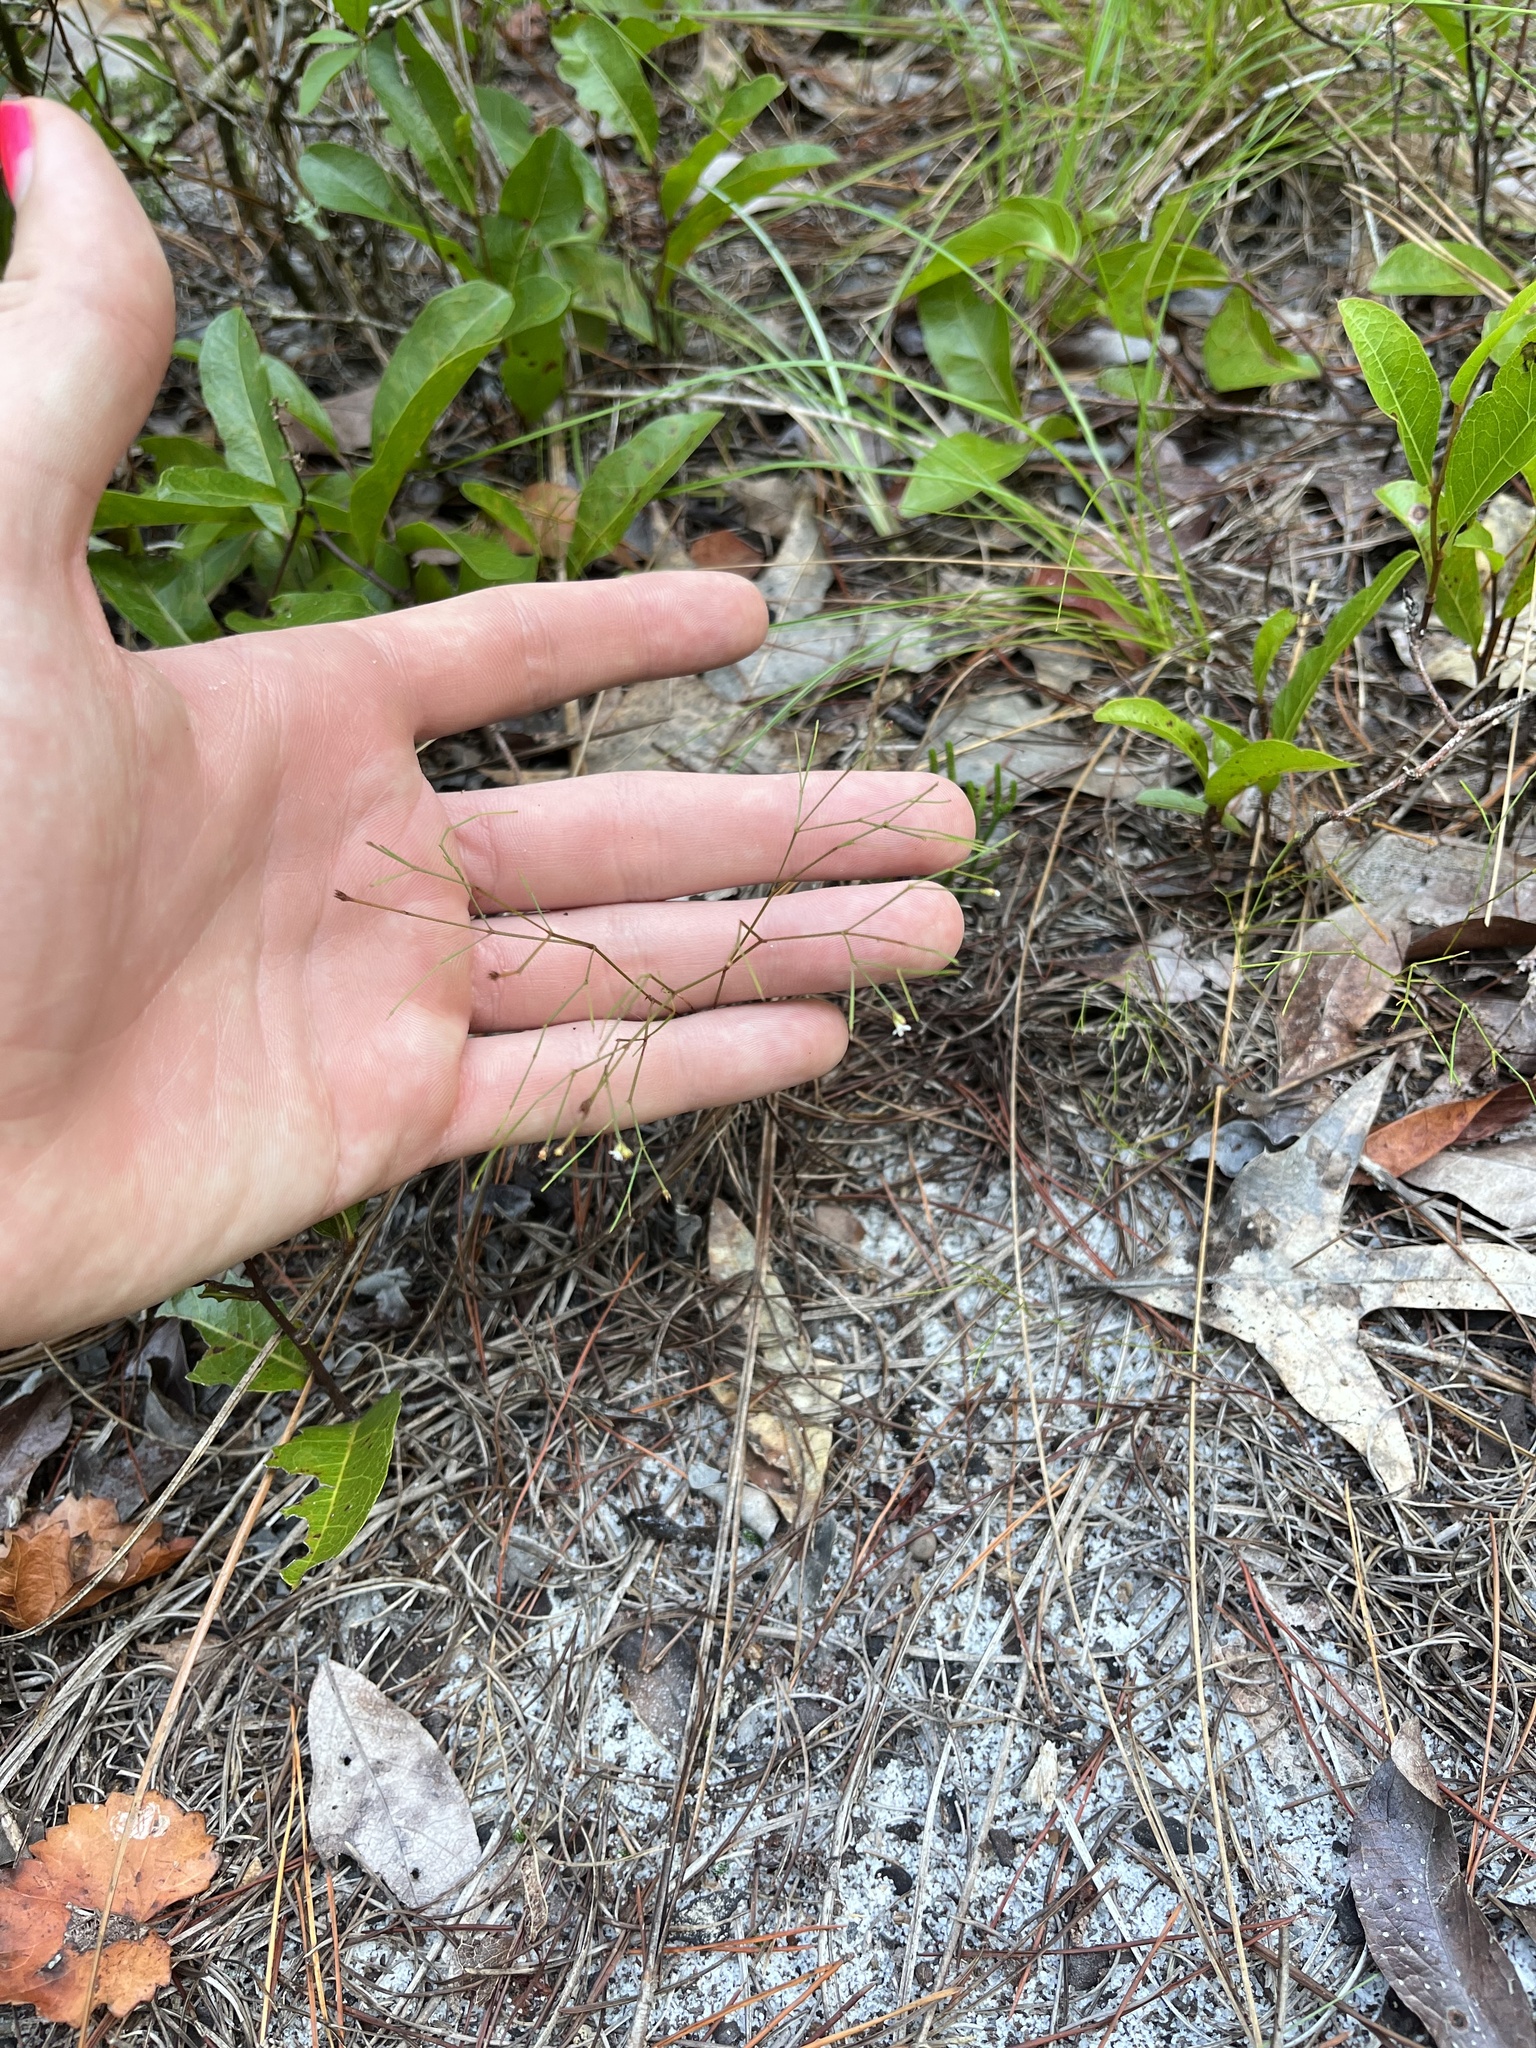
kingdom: Plantae
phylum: Tracheophyta
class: Magnoliopsida
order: Caryophyllales
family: Caryophyllaceae
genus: Stipulicida
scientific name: Stipulicida setacea
